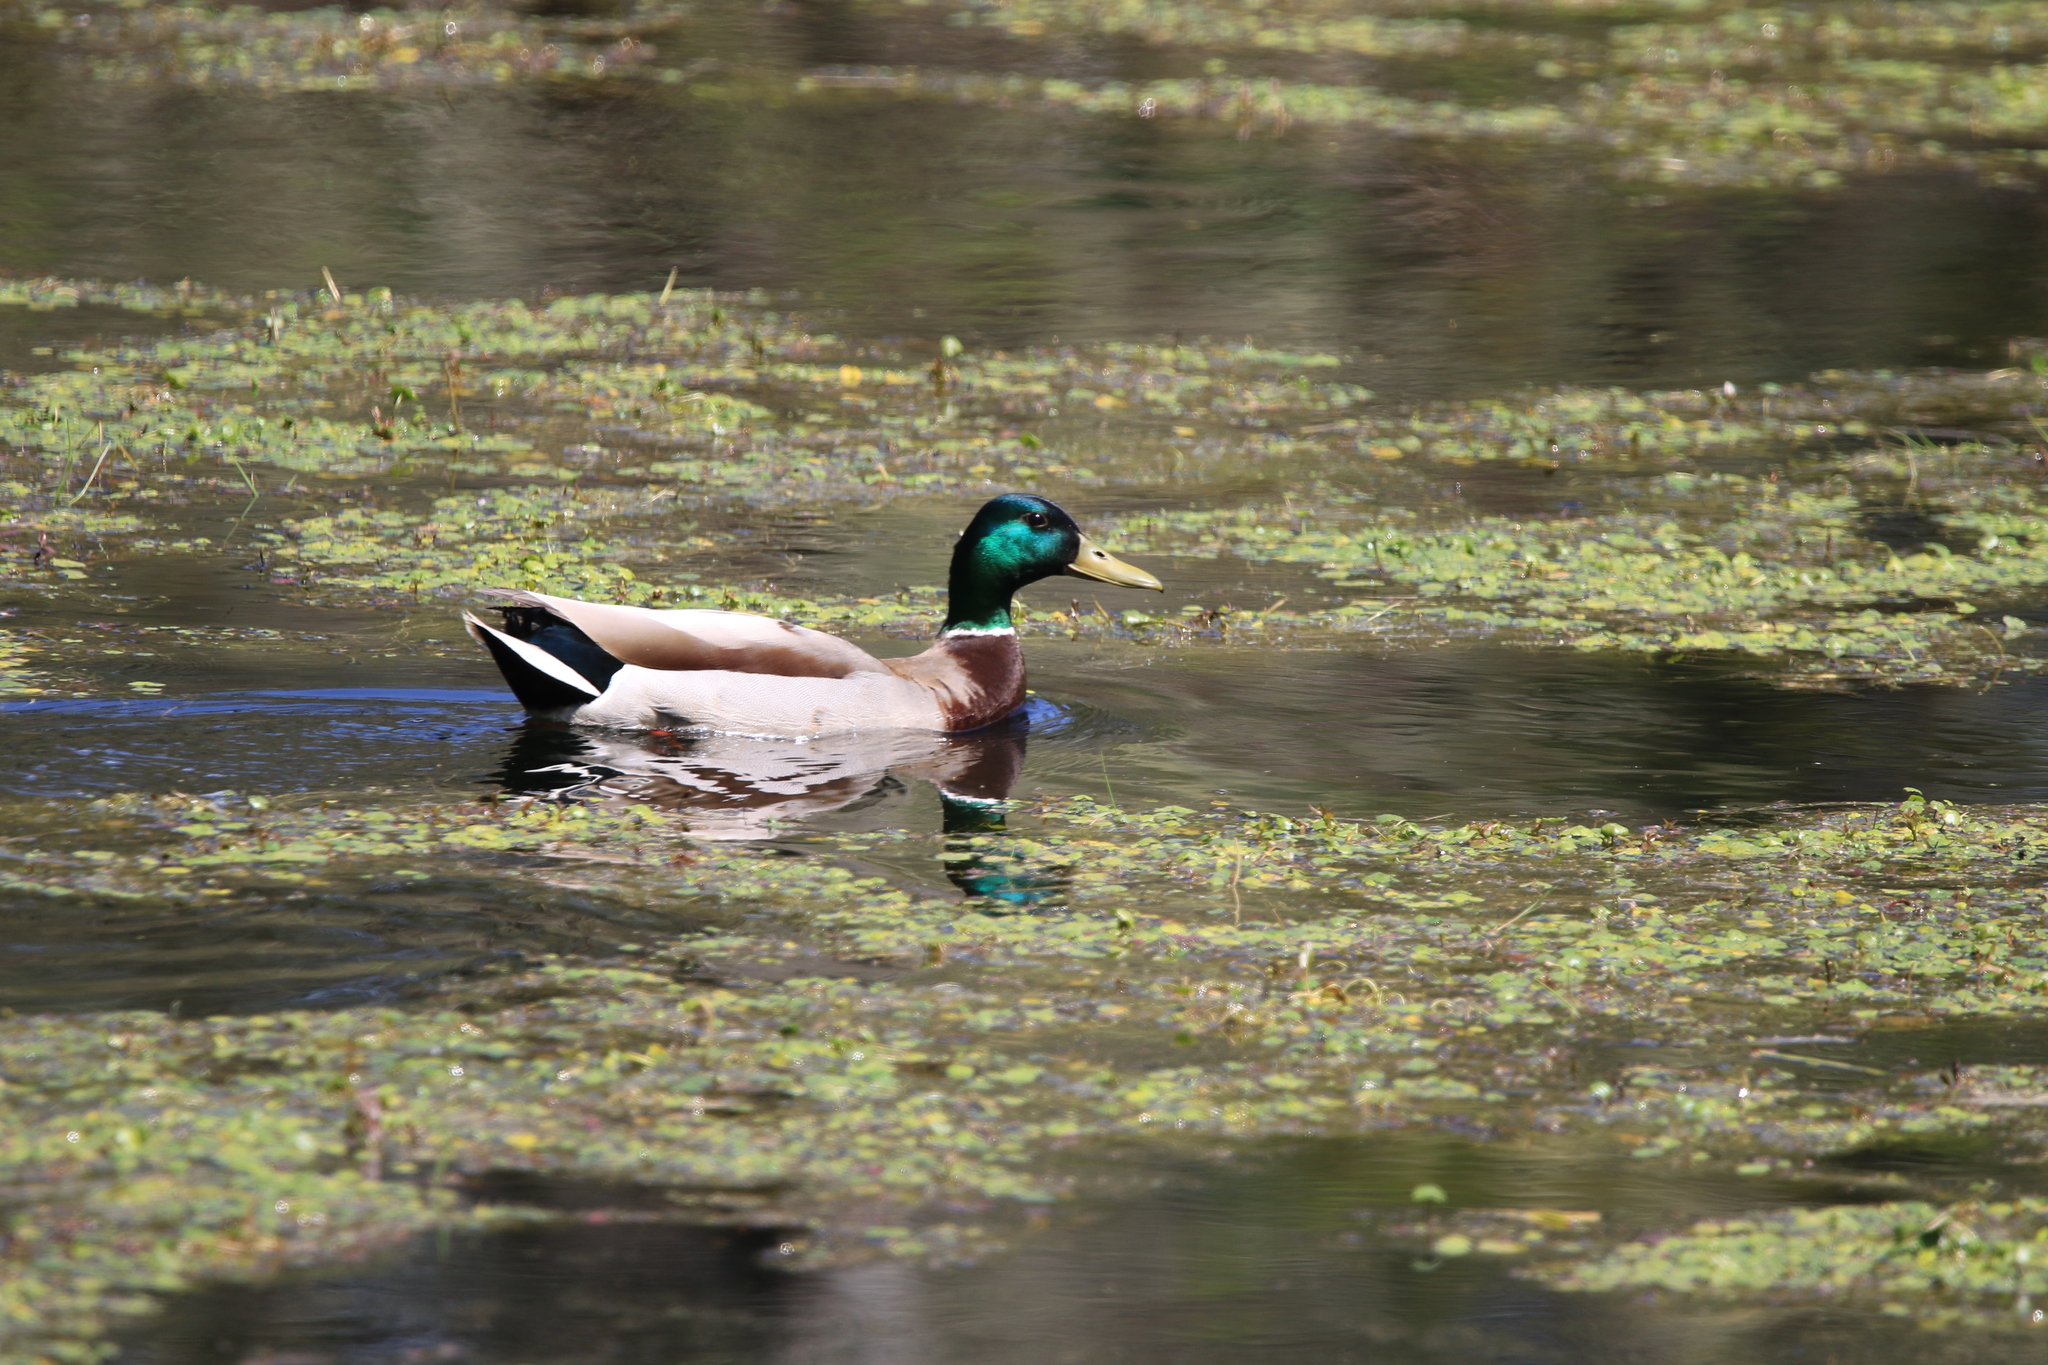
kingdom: Animalia
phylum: Chordata
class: Aves
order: Anseriformes
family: Anatidae
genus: Anas
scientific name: Anas platyrhynchos
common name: Mallard
